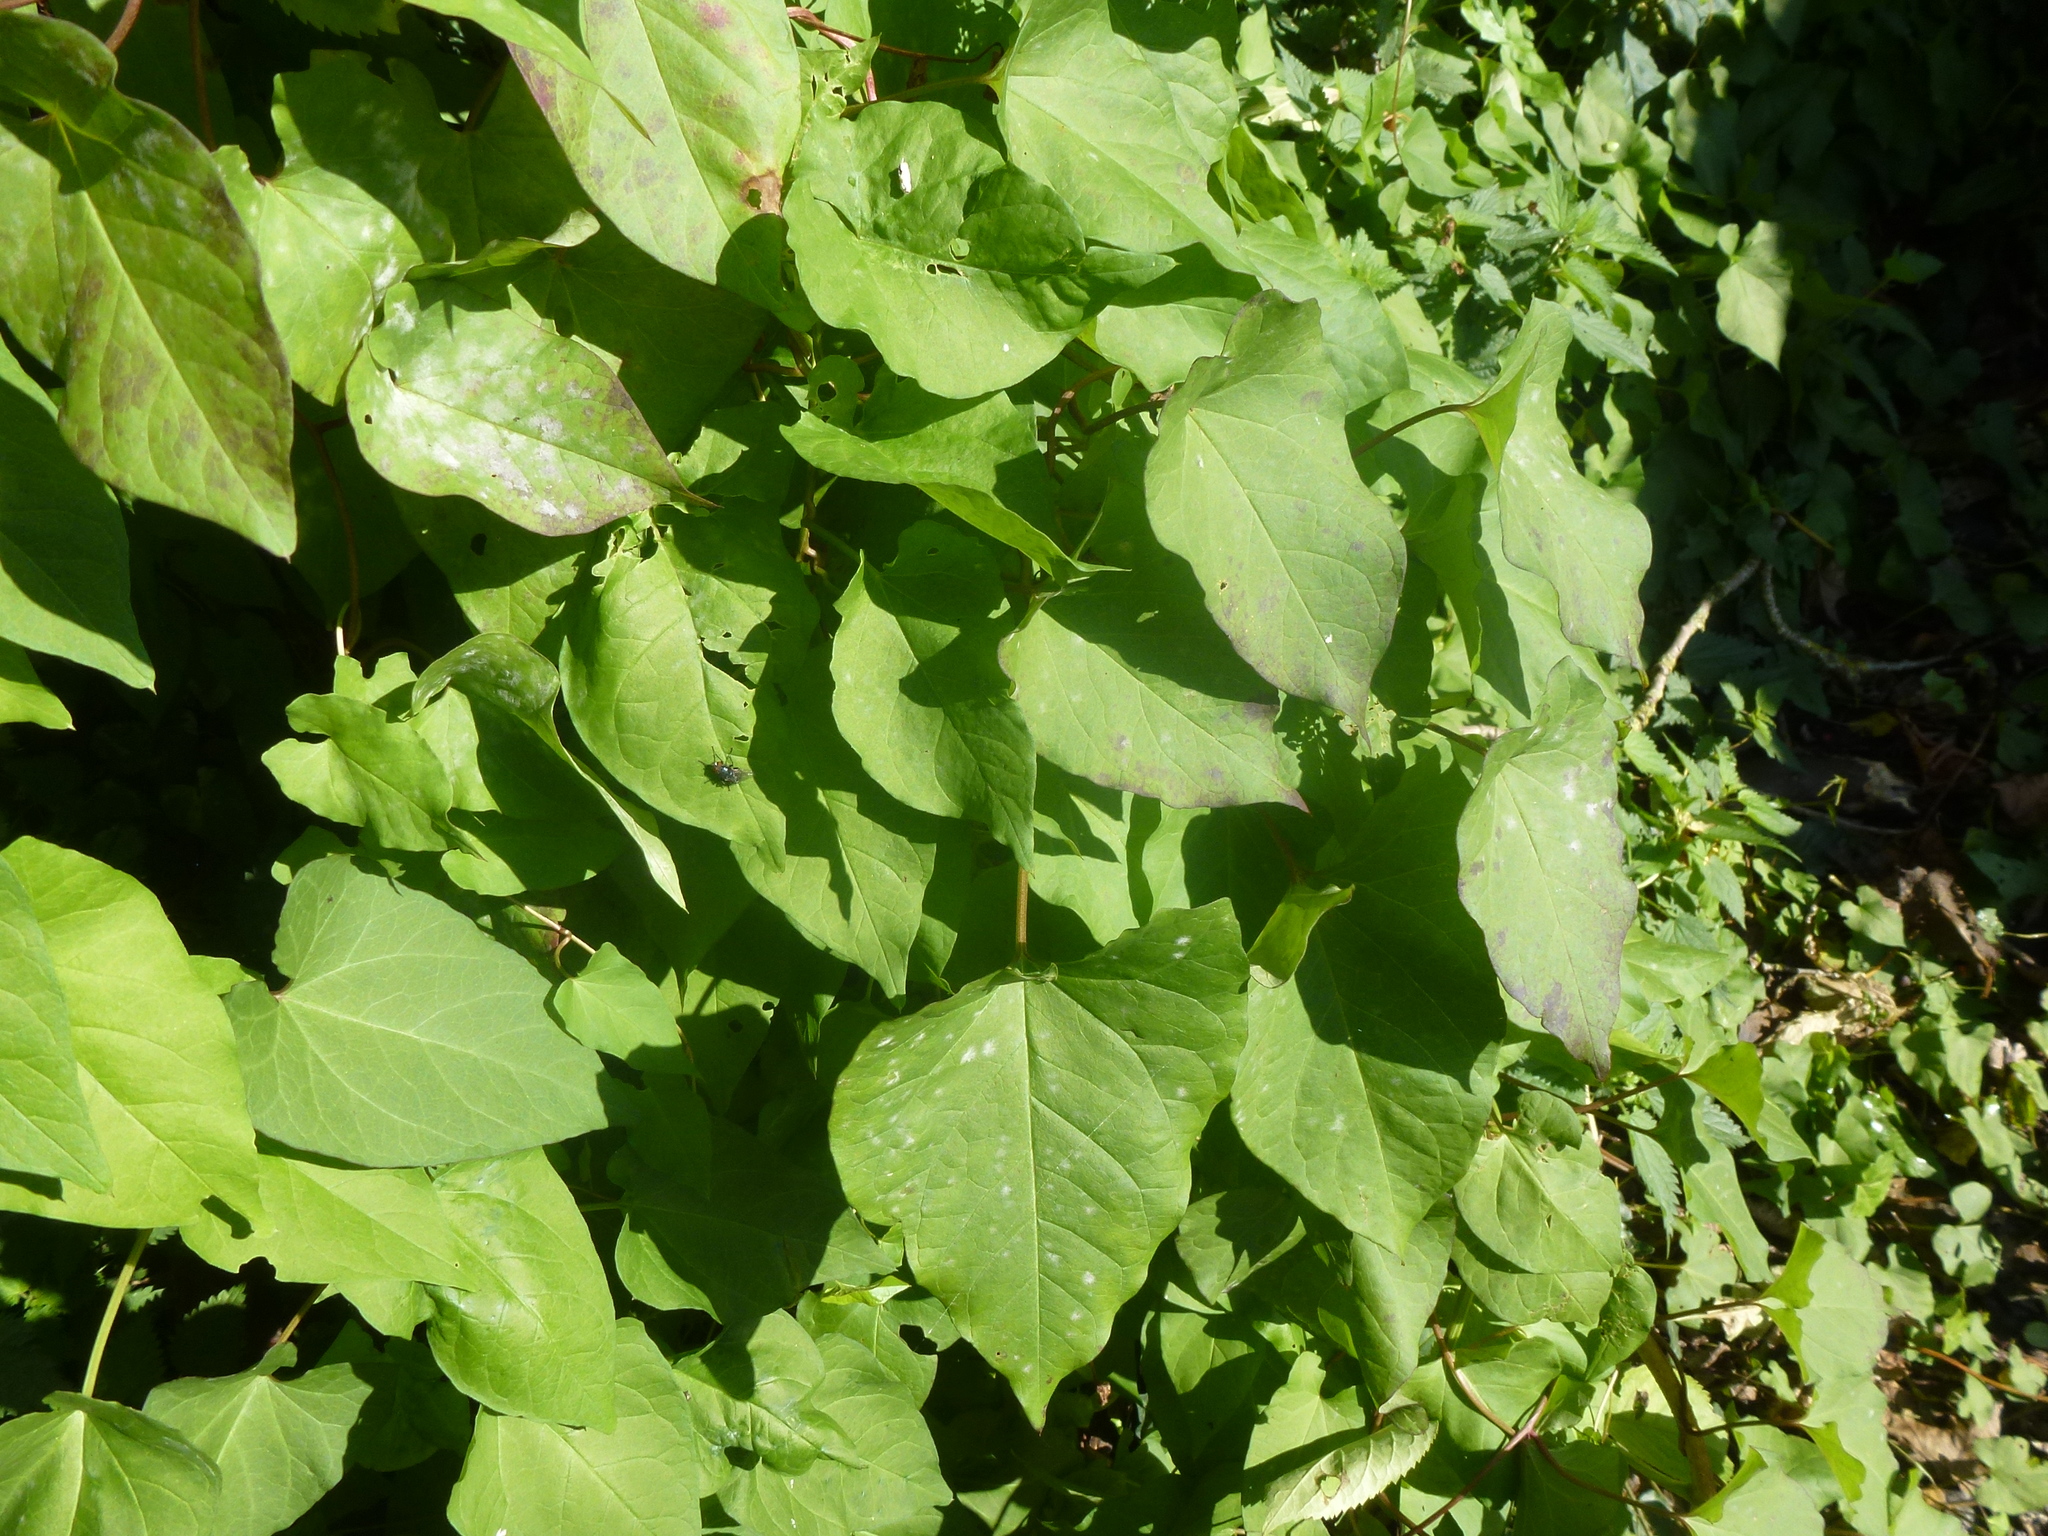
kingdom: Plantae
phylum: Tracheophyta
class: Magnoliopsida
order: Solanales
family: Convolvulaceae
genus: Calystegia
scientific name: Calystegia silvatica
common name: Large bindweed
